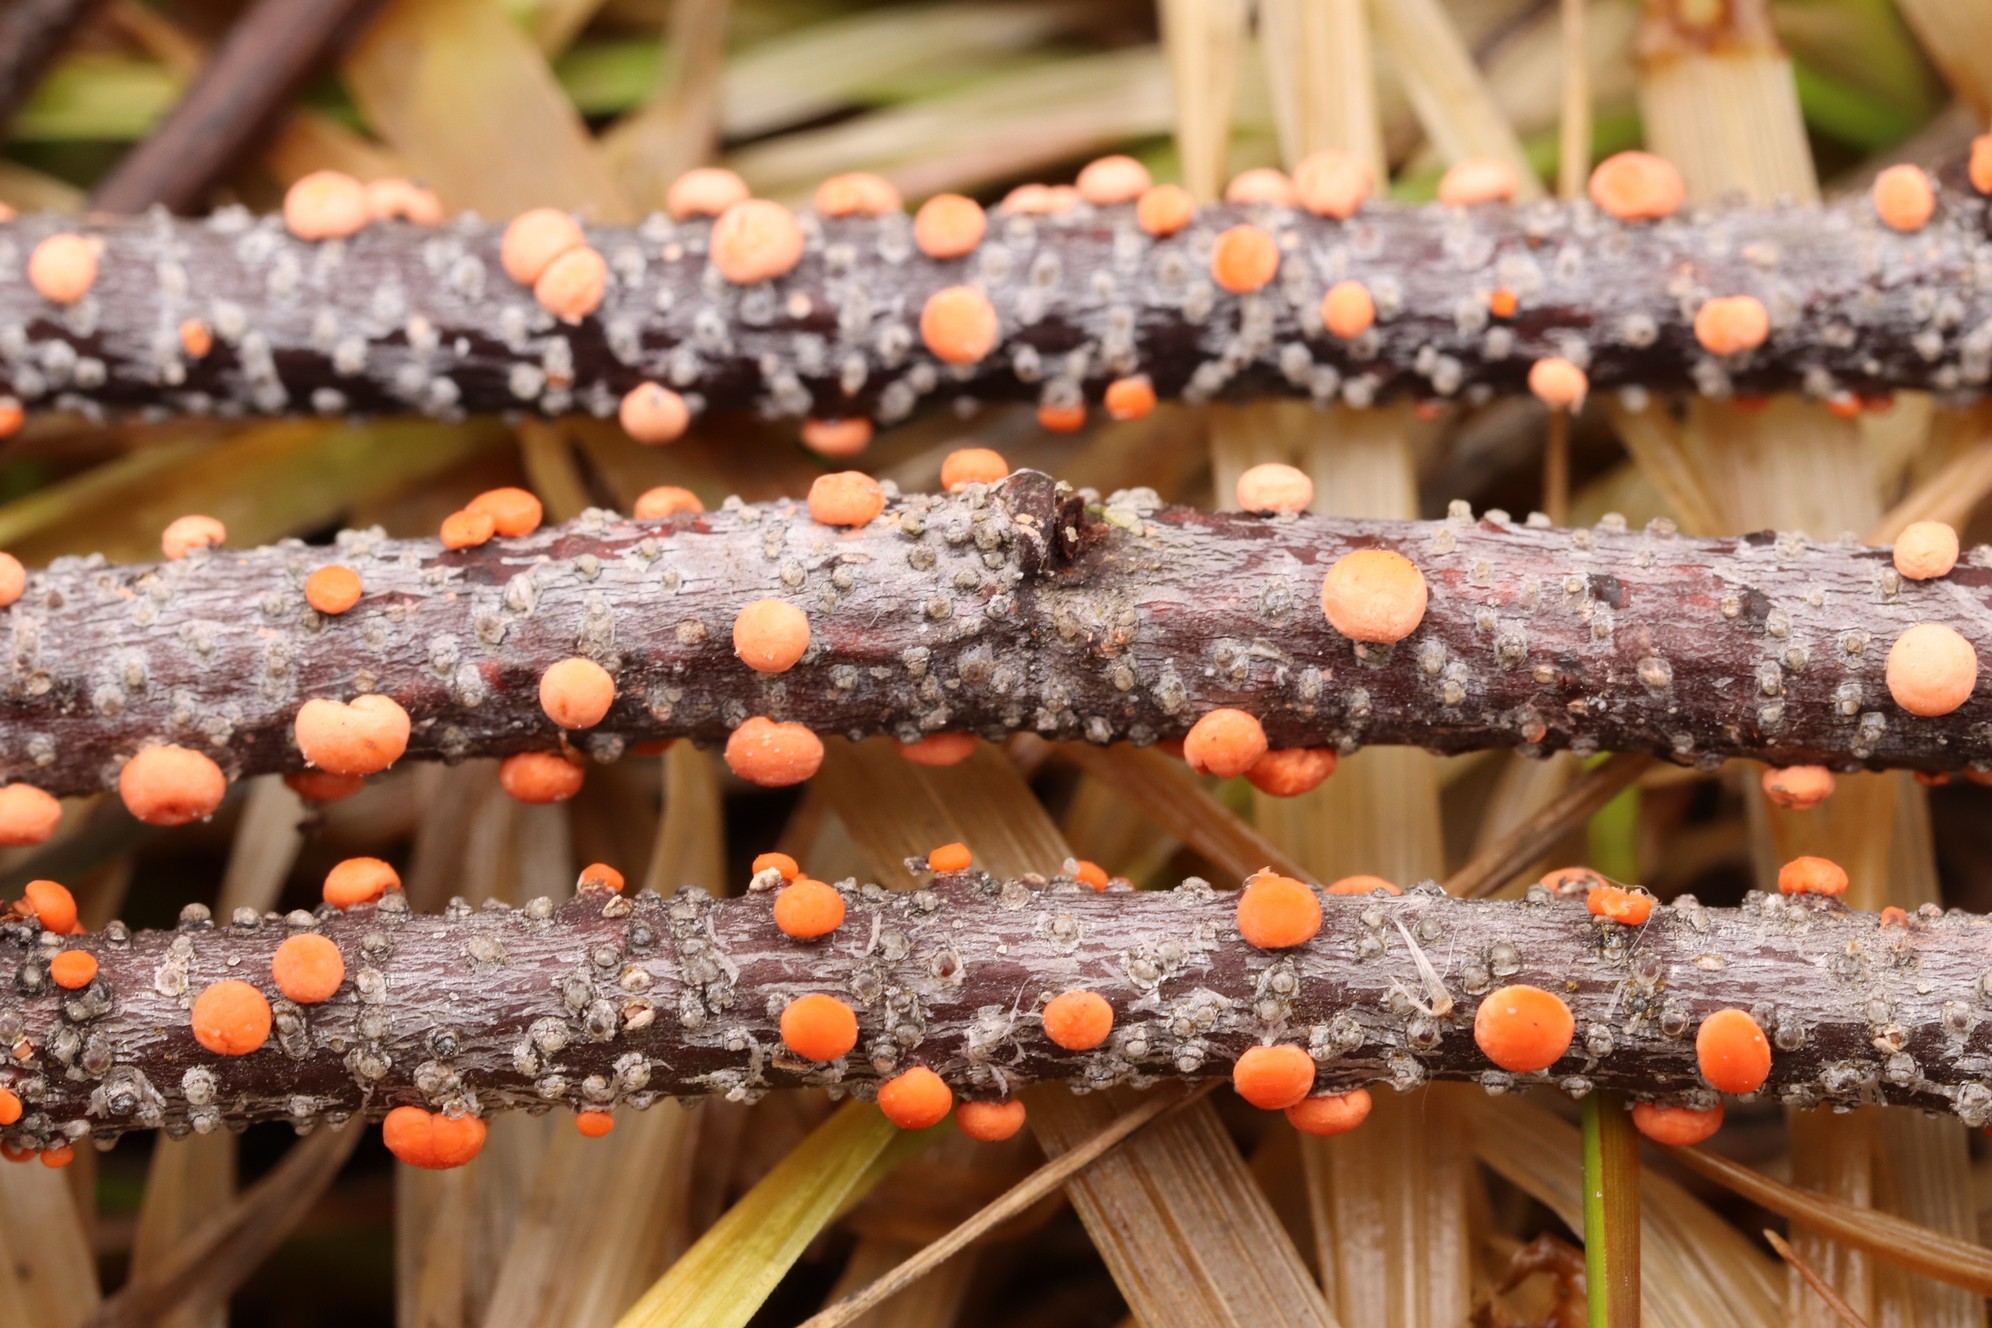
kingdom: Fungi
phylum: Ascomycota
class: Sordariomycetes
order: Hypocreales
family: Nectriaceae
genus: Nectria
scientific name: Nectria cinnabarina
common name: Coral spot
